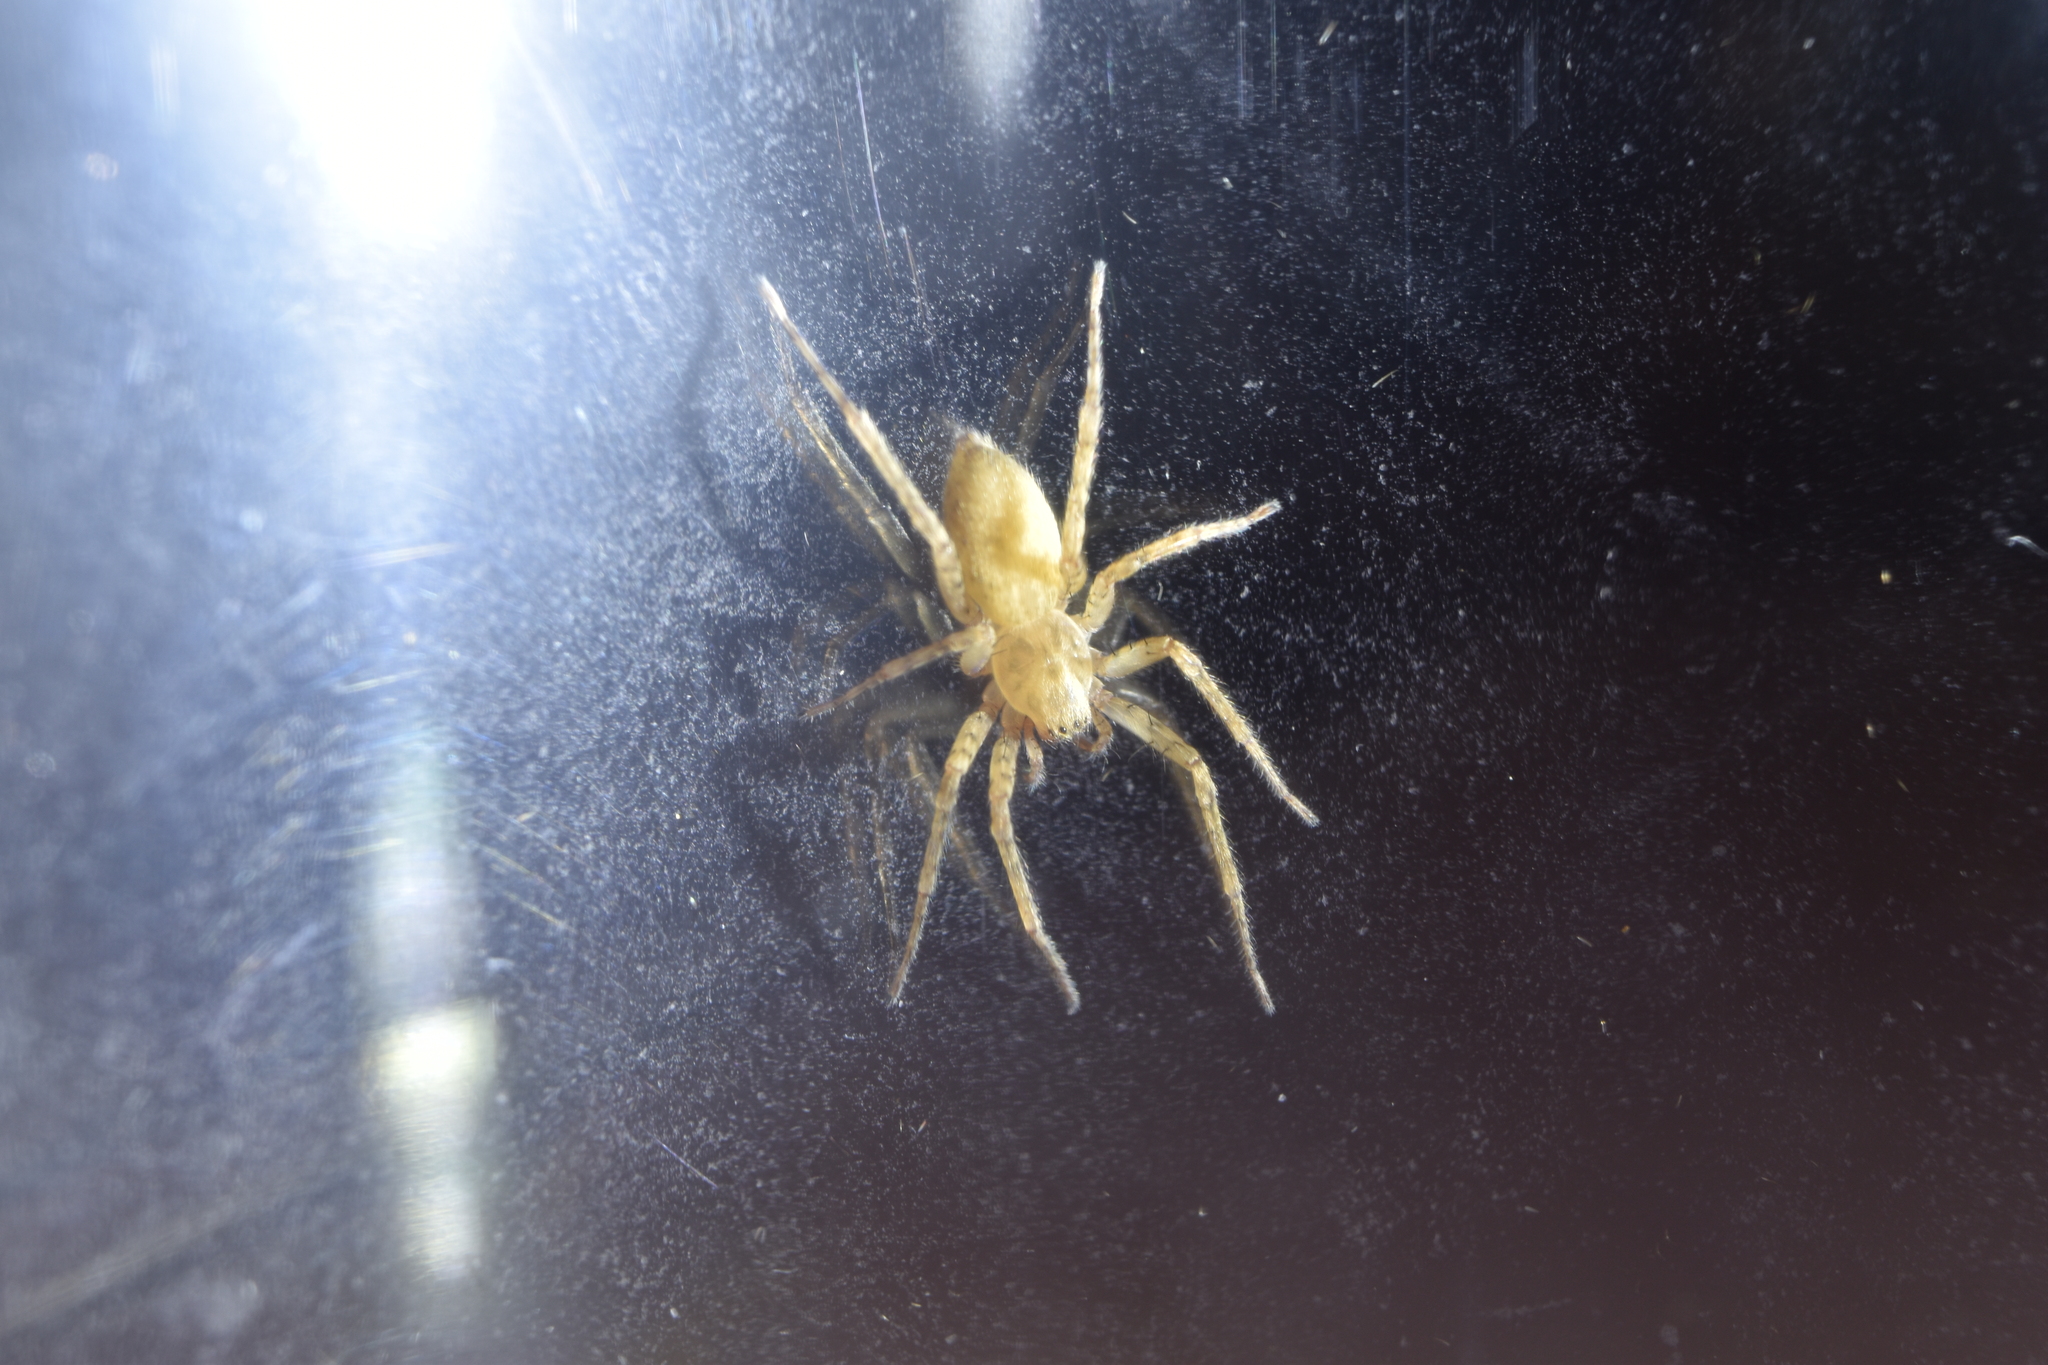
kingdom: Animalia
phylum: Arthropoda
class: Arachnida
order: Araneae
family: Anyphaenidae
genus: Anyphaena
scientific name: Anyphaena numida
